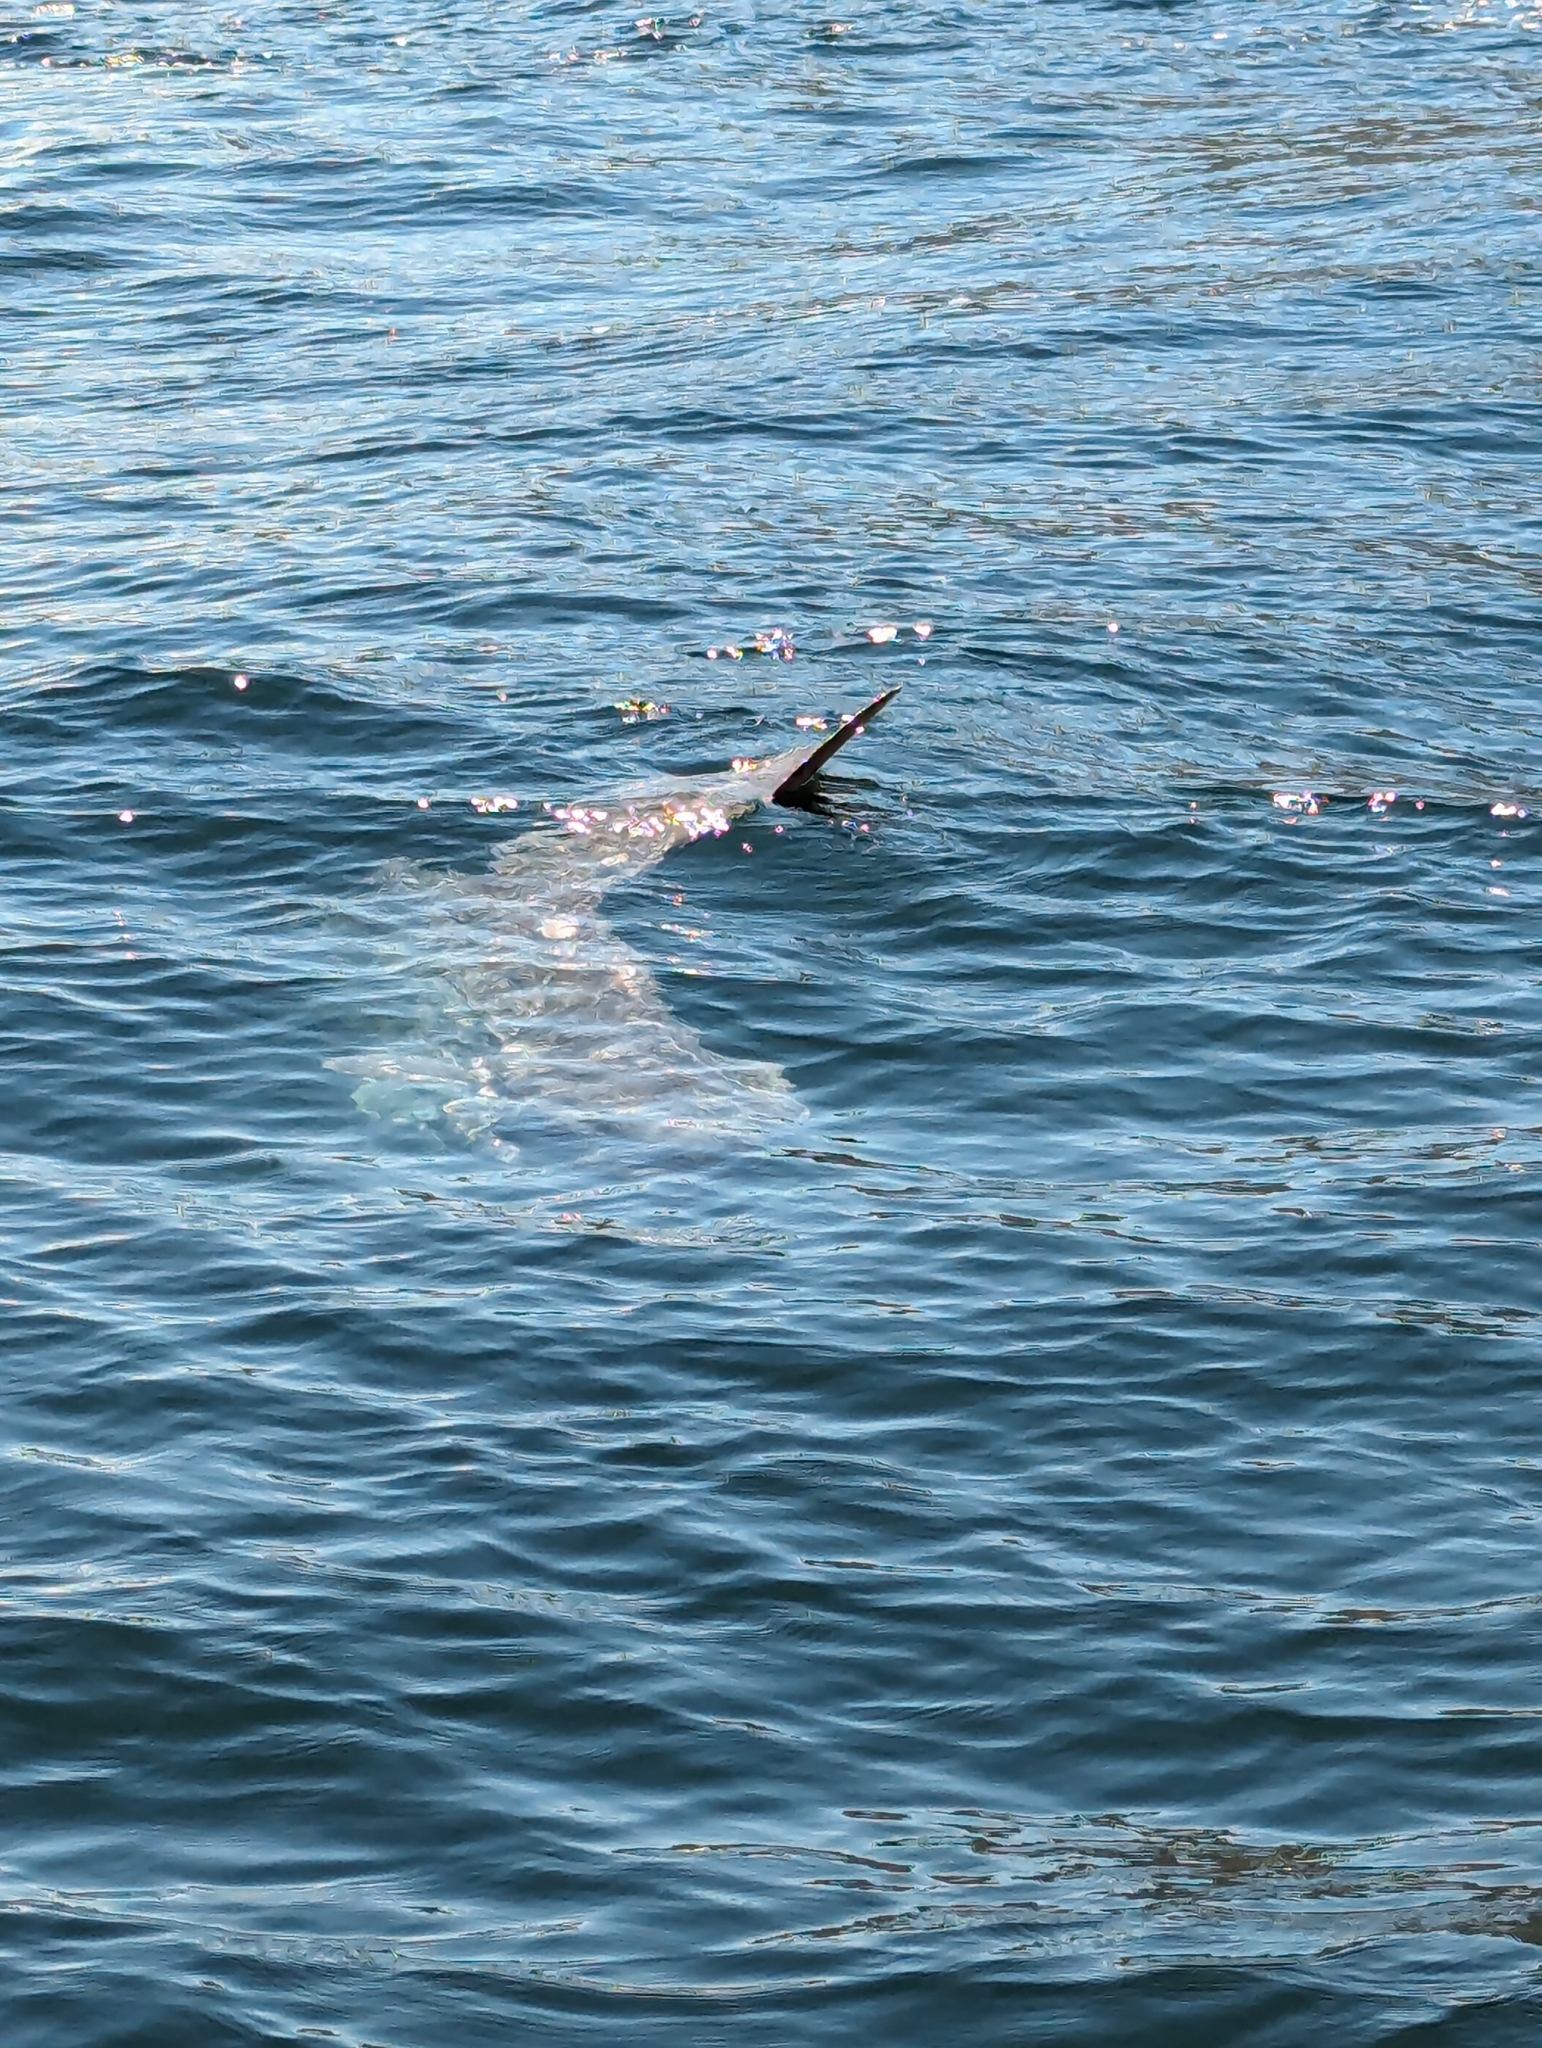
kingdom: Animalia
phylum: Chordata
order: Tetraodontiformes
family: Molidae
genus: Mola
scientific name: Mola mola
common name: Ocean sunfish
